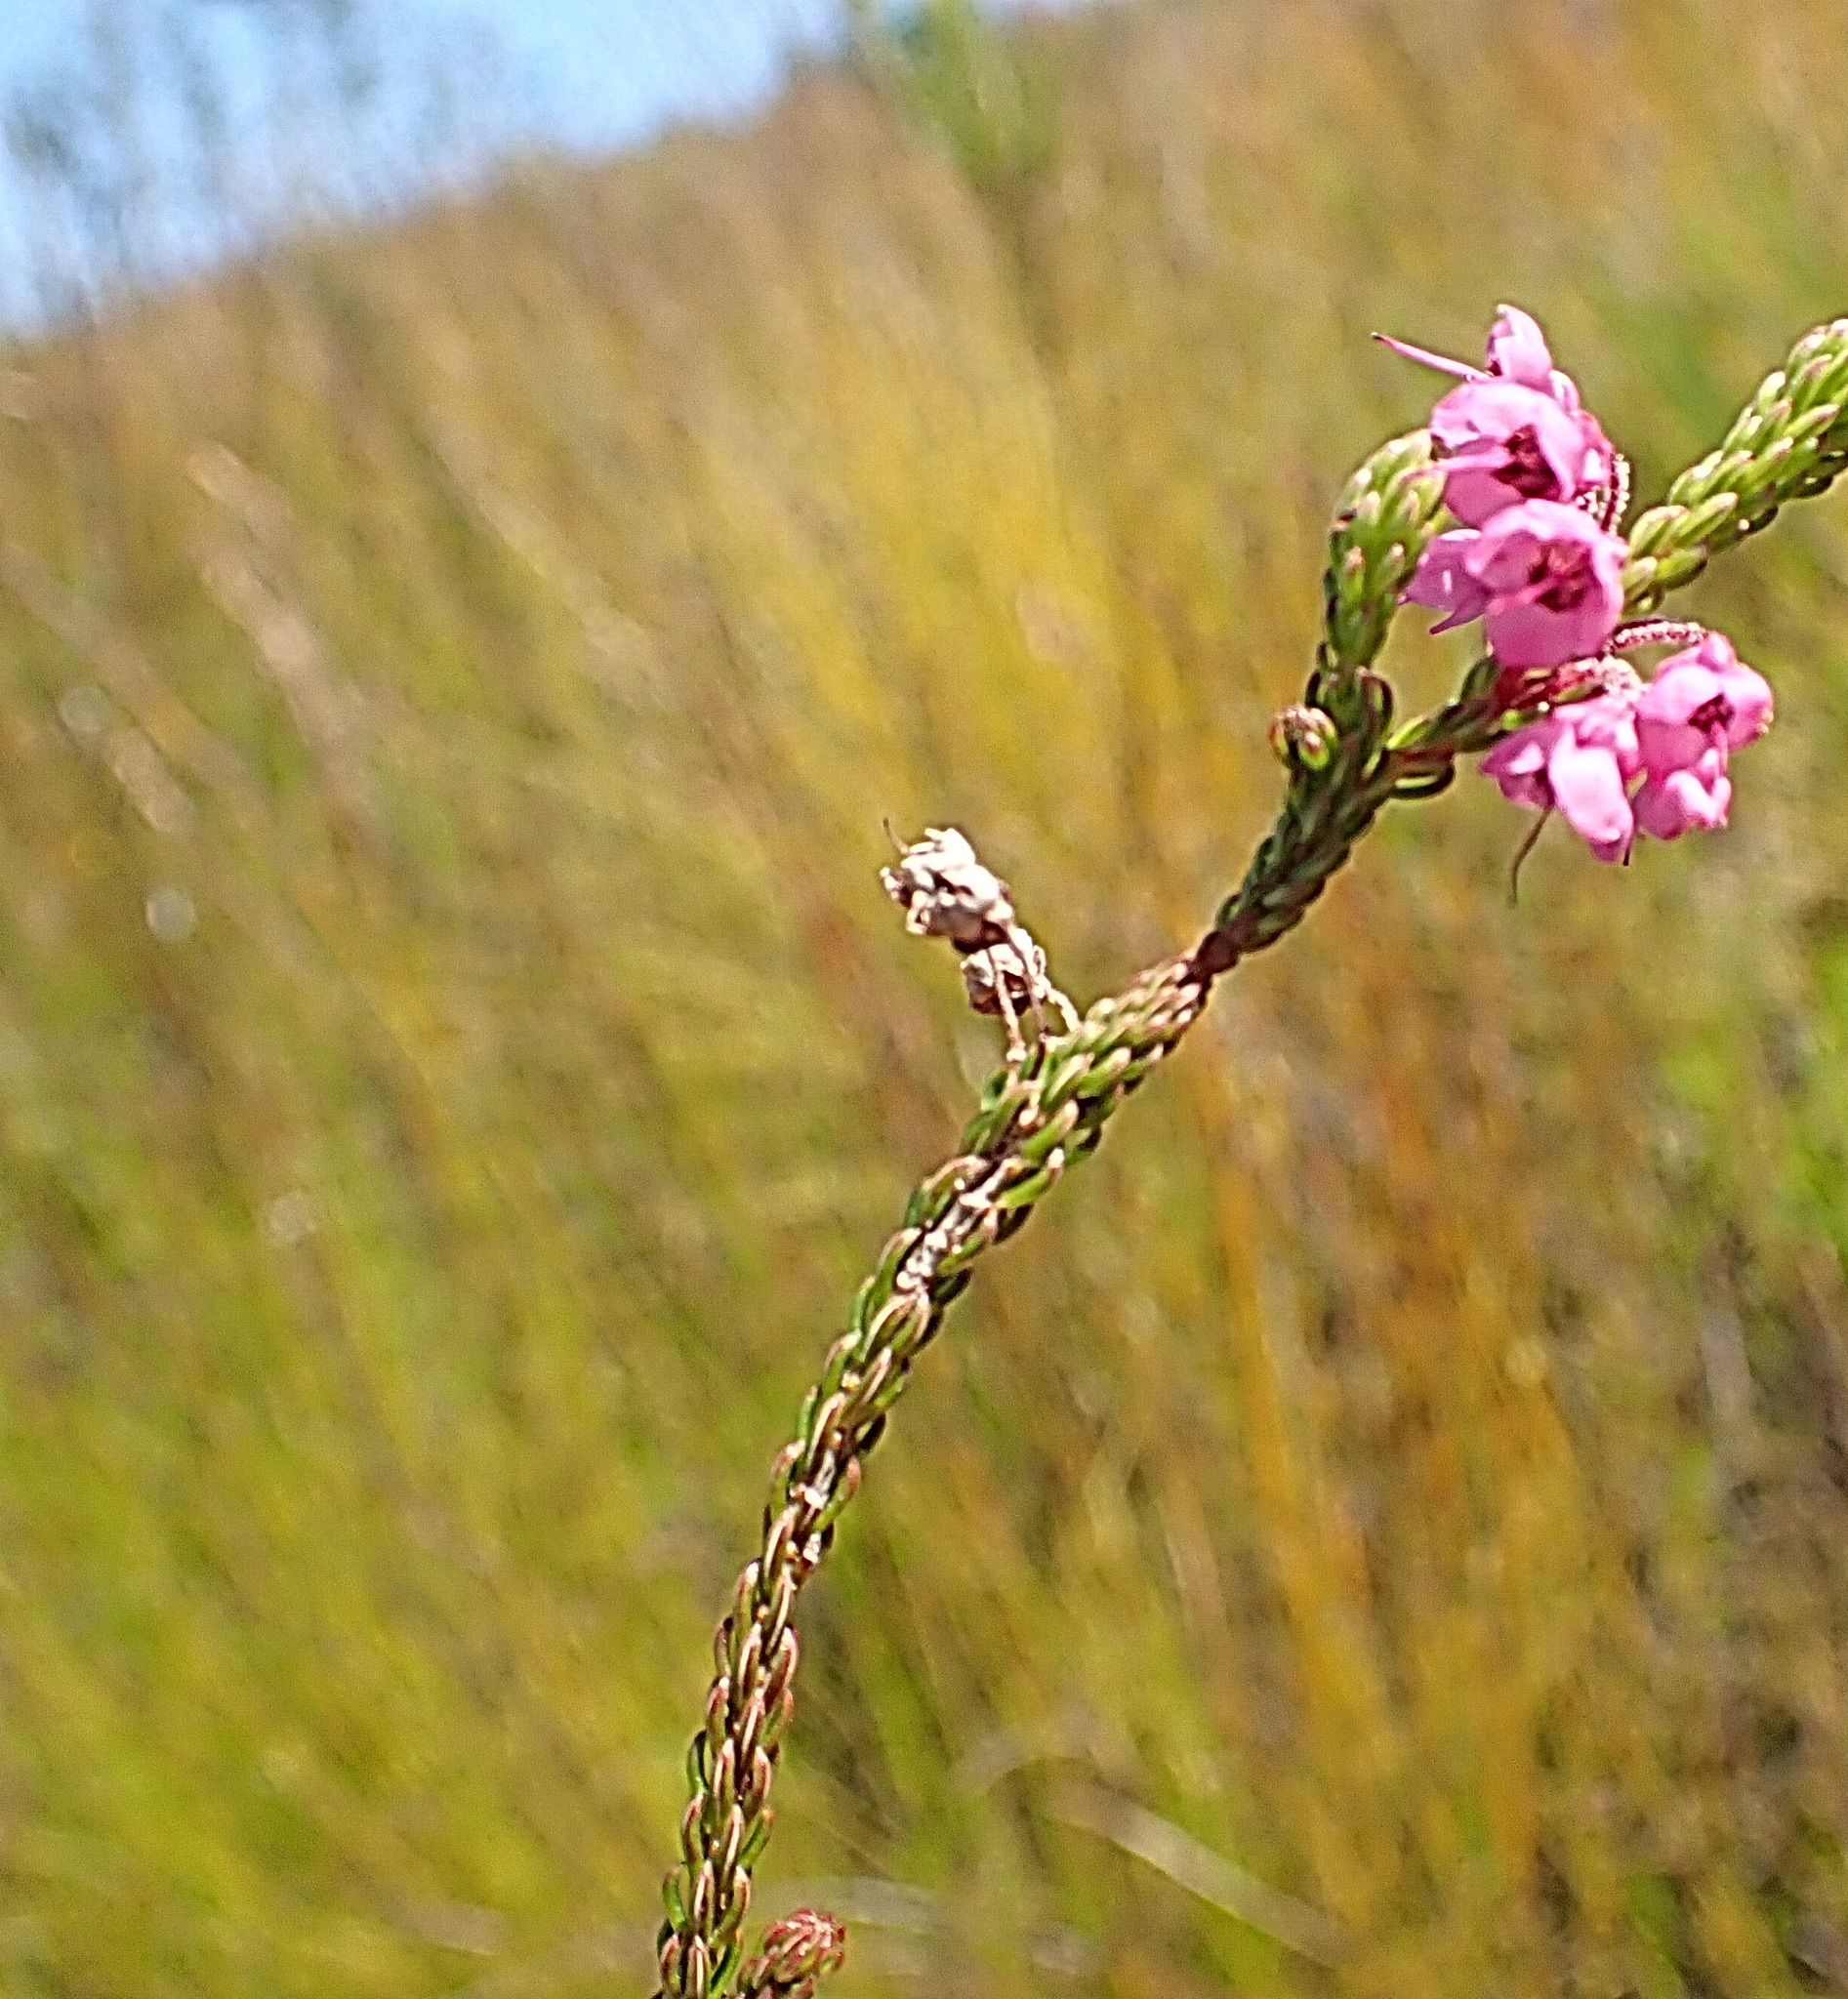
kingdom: Plantae
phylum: Tracheophyta
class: Magnoliopsida
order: Ericales
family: Ericaceae
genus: Erica
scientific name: Erica seriphiifolia
